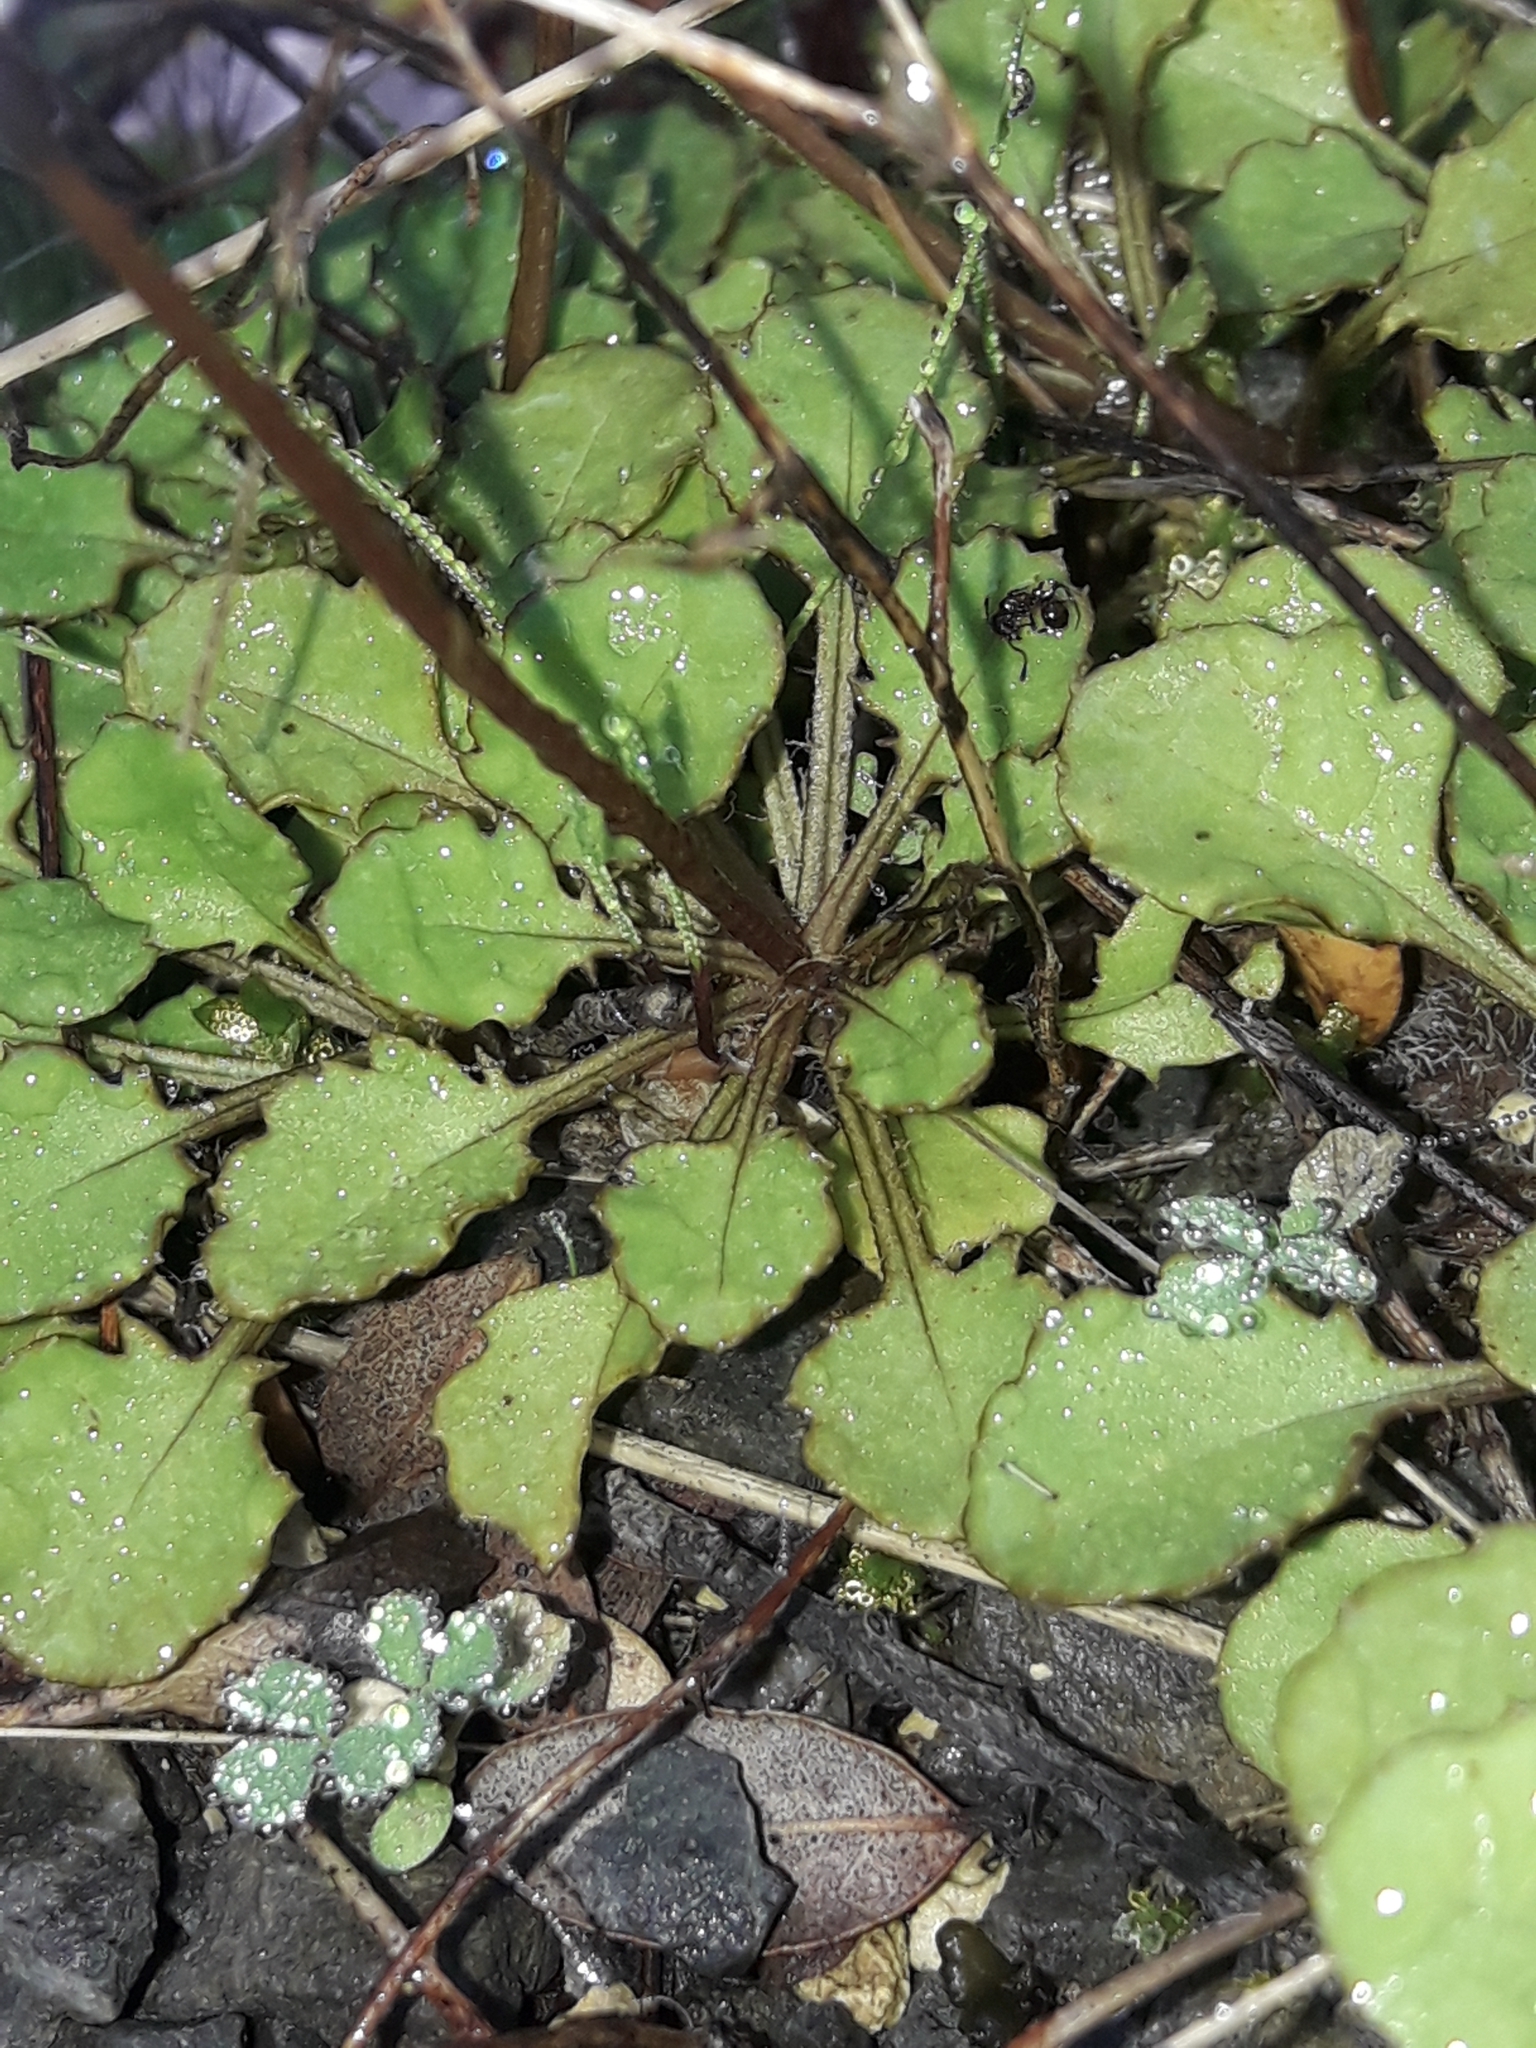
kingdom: Plantae
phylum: Tracheophyta
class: Magnoliopsida
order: Asterales
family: Asteraceae
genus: Lagenophora
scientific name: Lagenophora pumila
